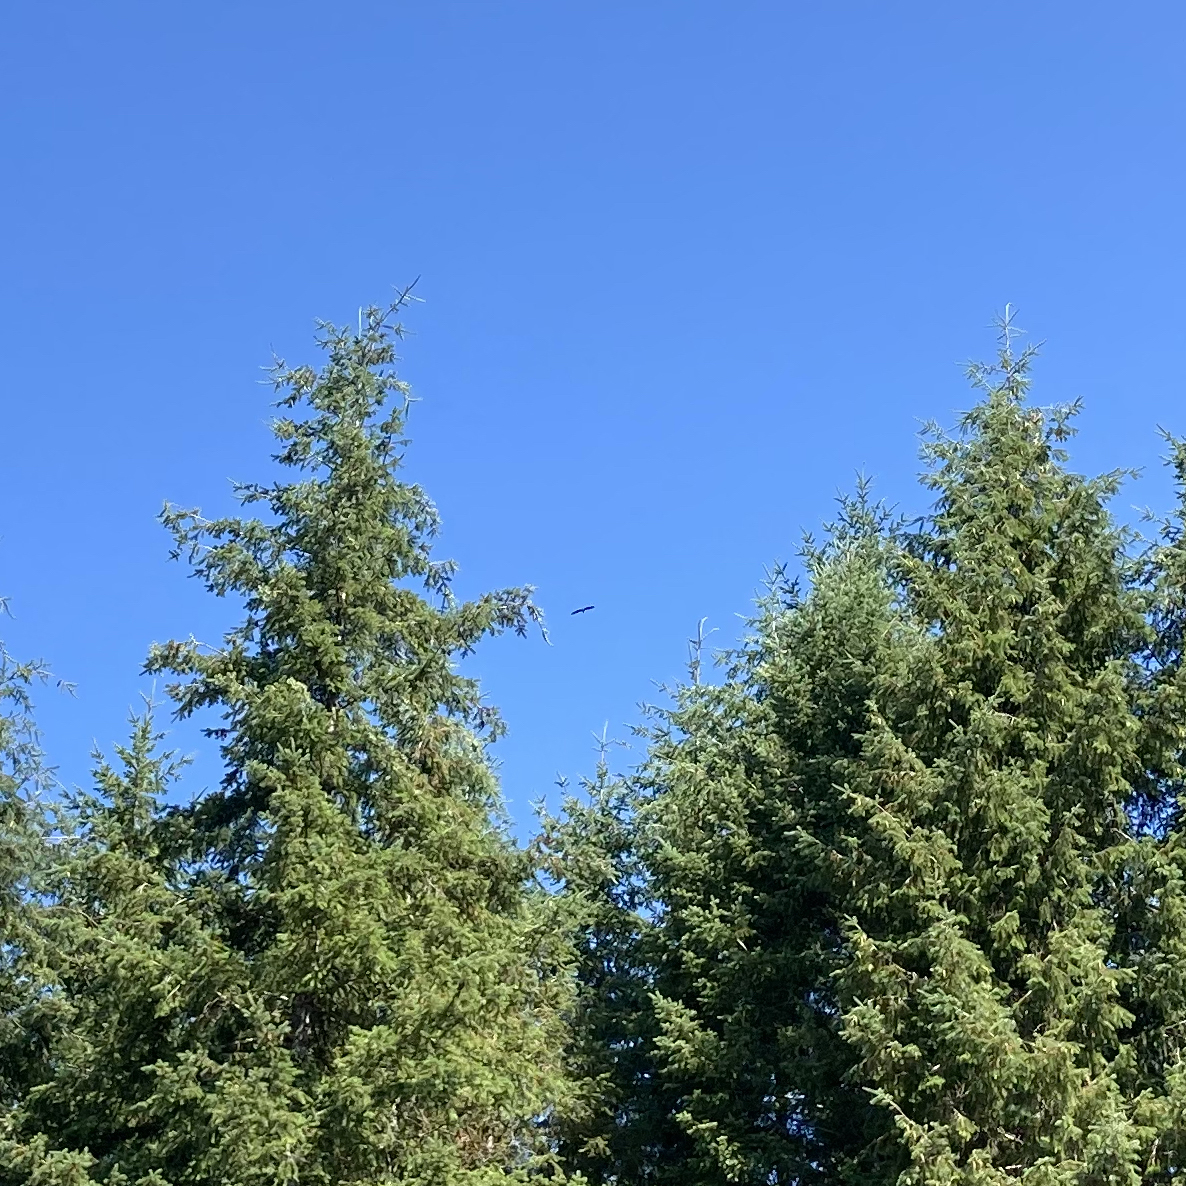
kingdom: Animalia
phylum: Chordata
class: Aves
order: Pelecaniformes
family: Ardeidae
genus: Ardea
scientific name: Ardea herodias
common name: Great blue heron
